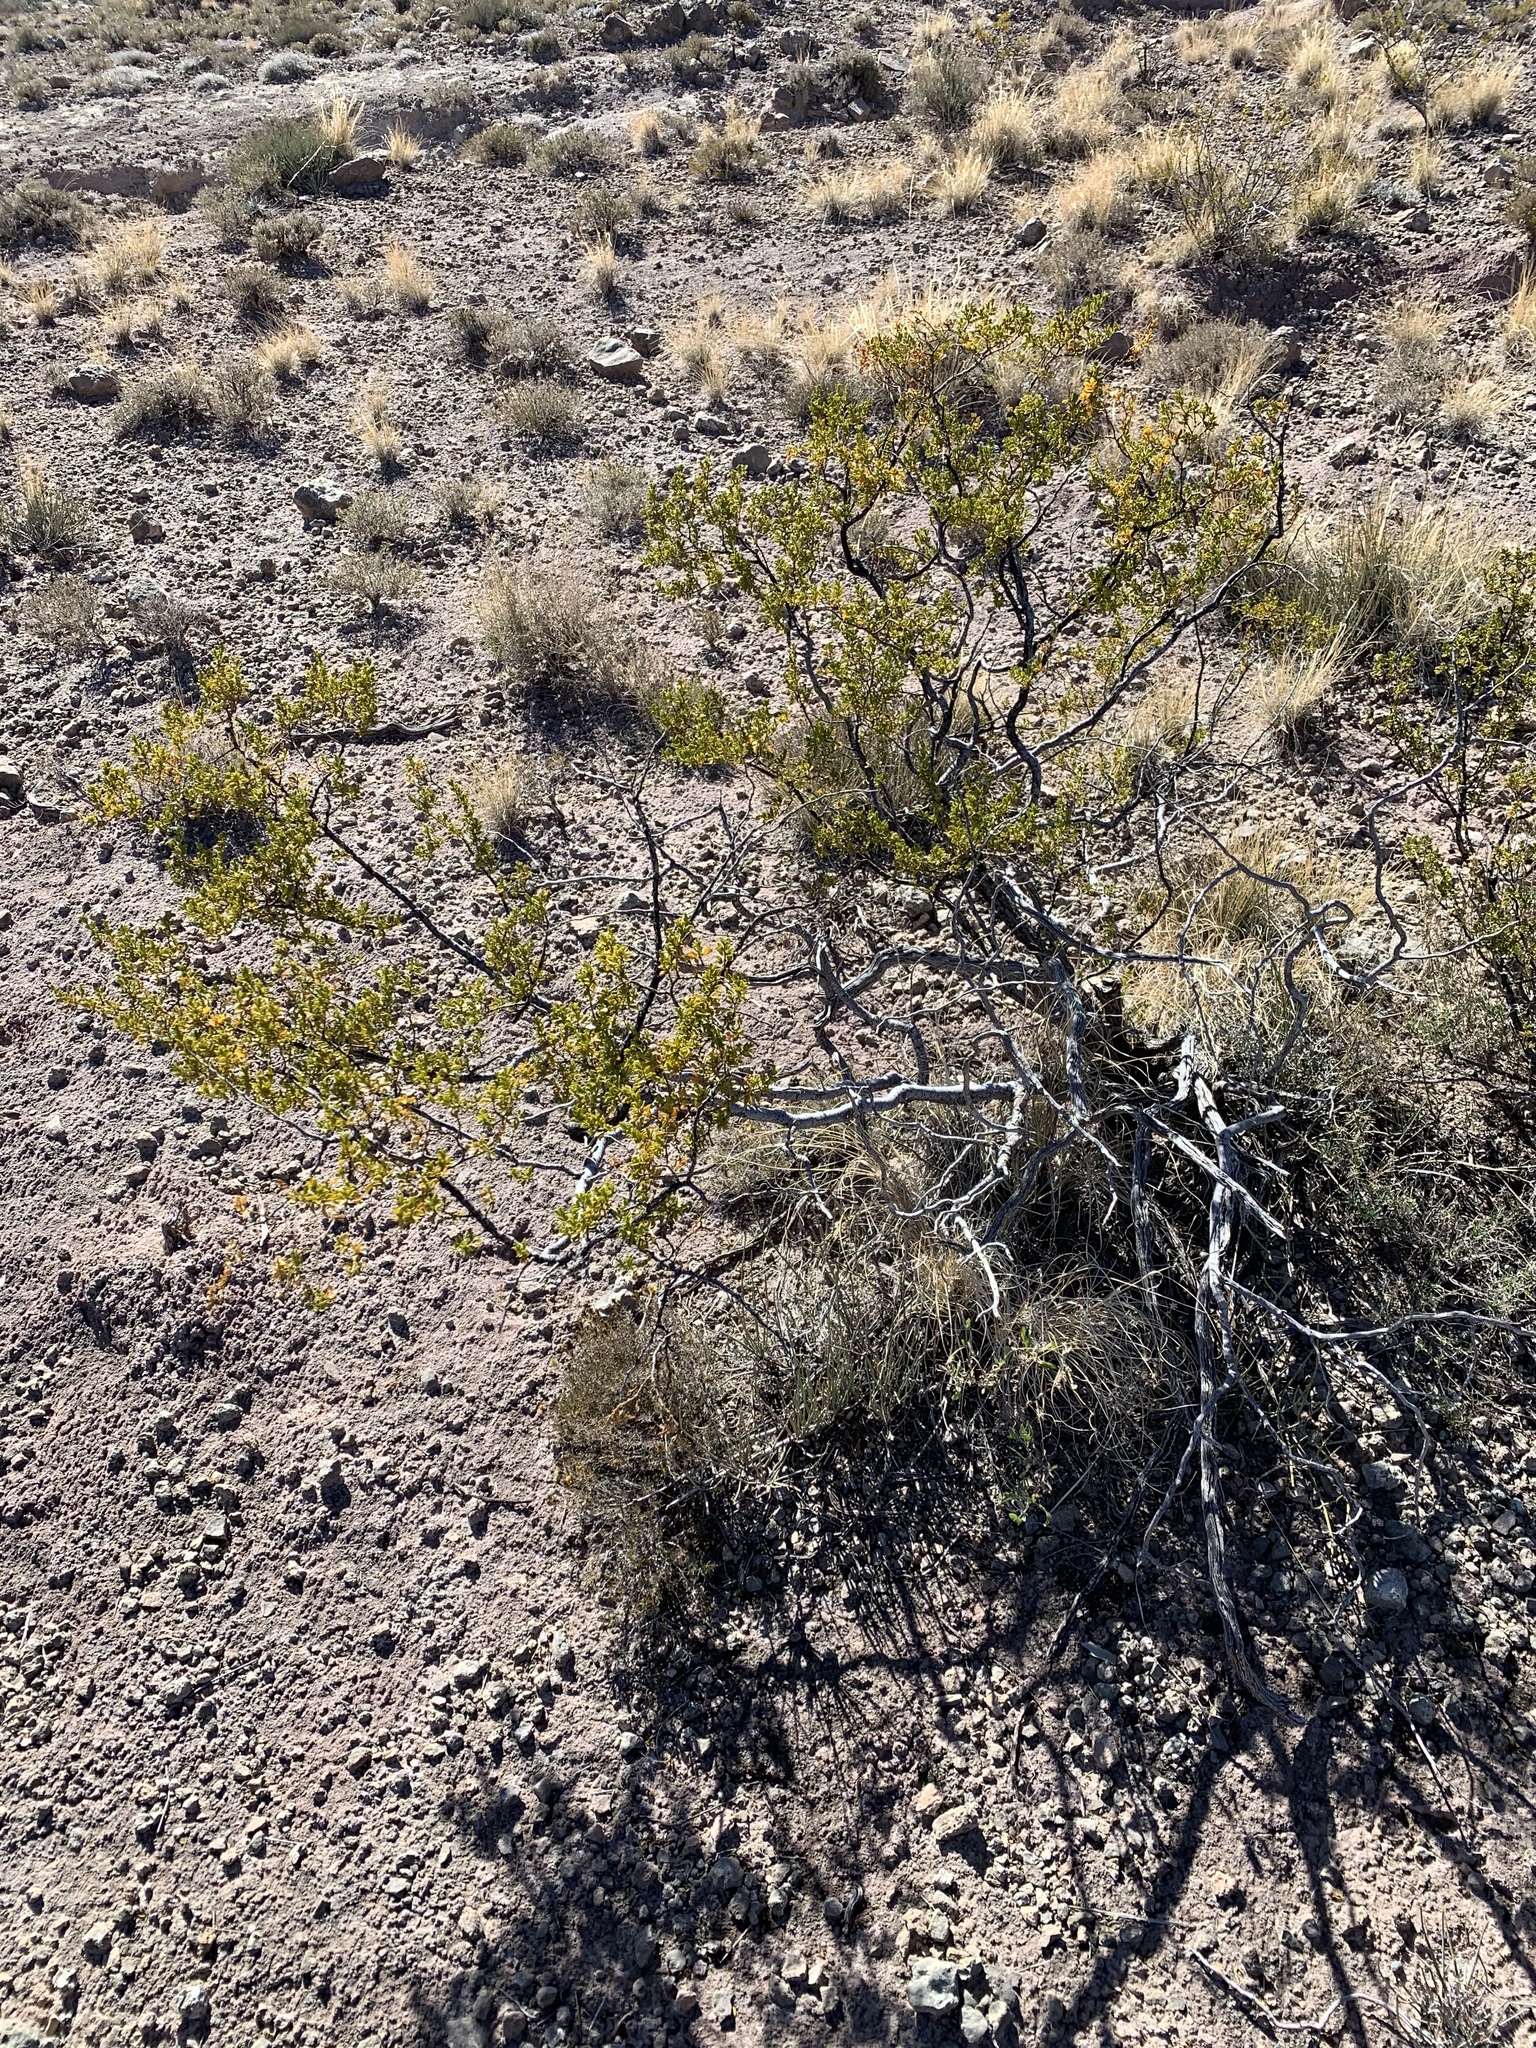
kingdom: Plantae
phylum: Tracheophyta
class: Magnoliopsida
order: Zygophyllales
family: Zygophyllaceae
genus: Larrea
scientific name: Larrea tridentata
